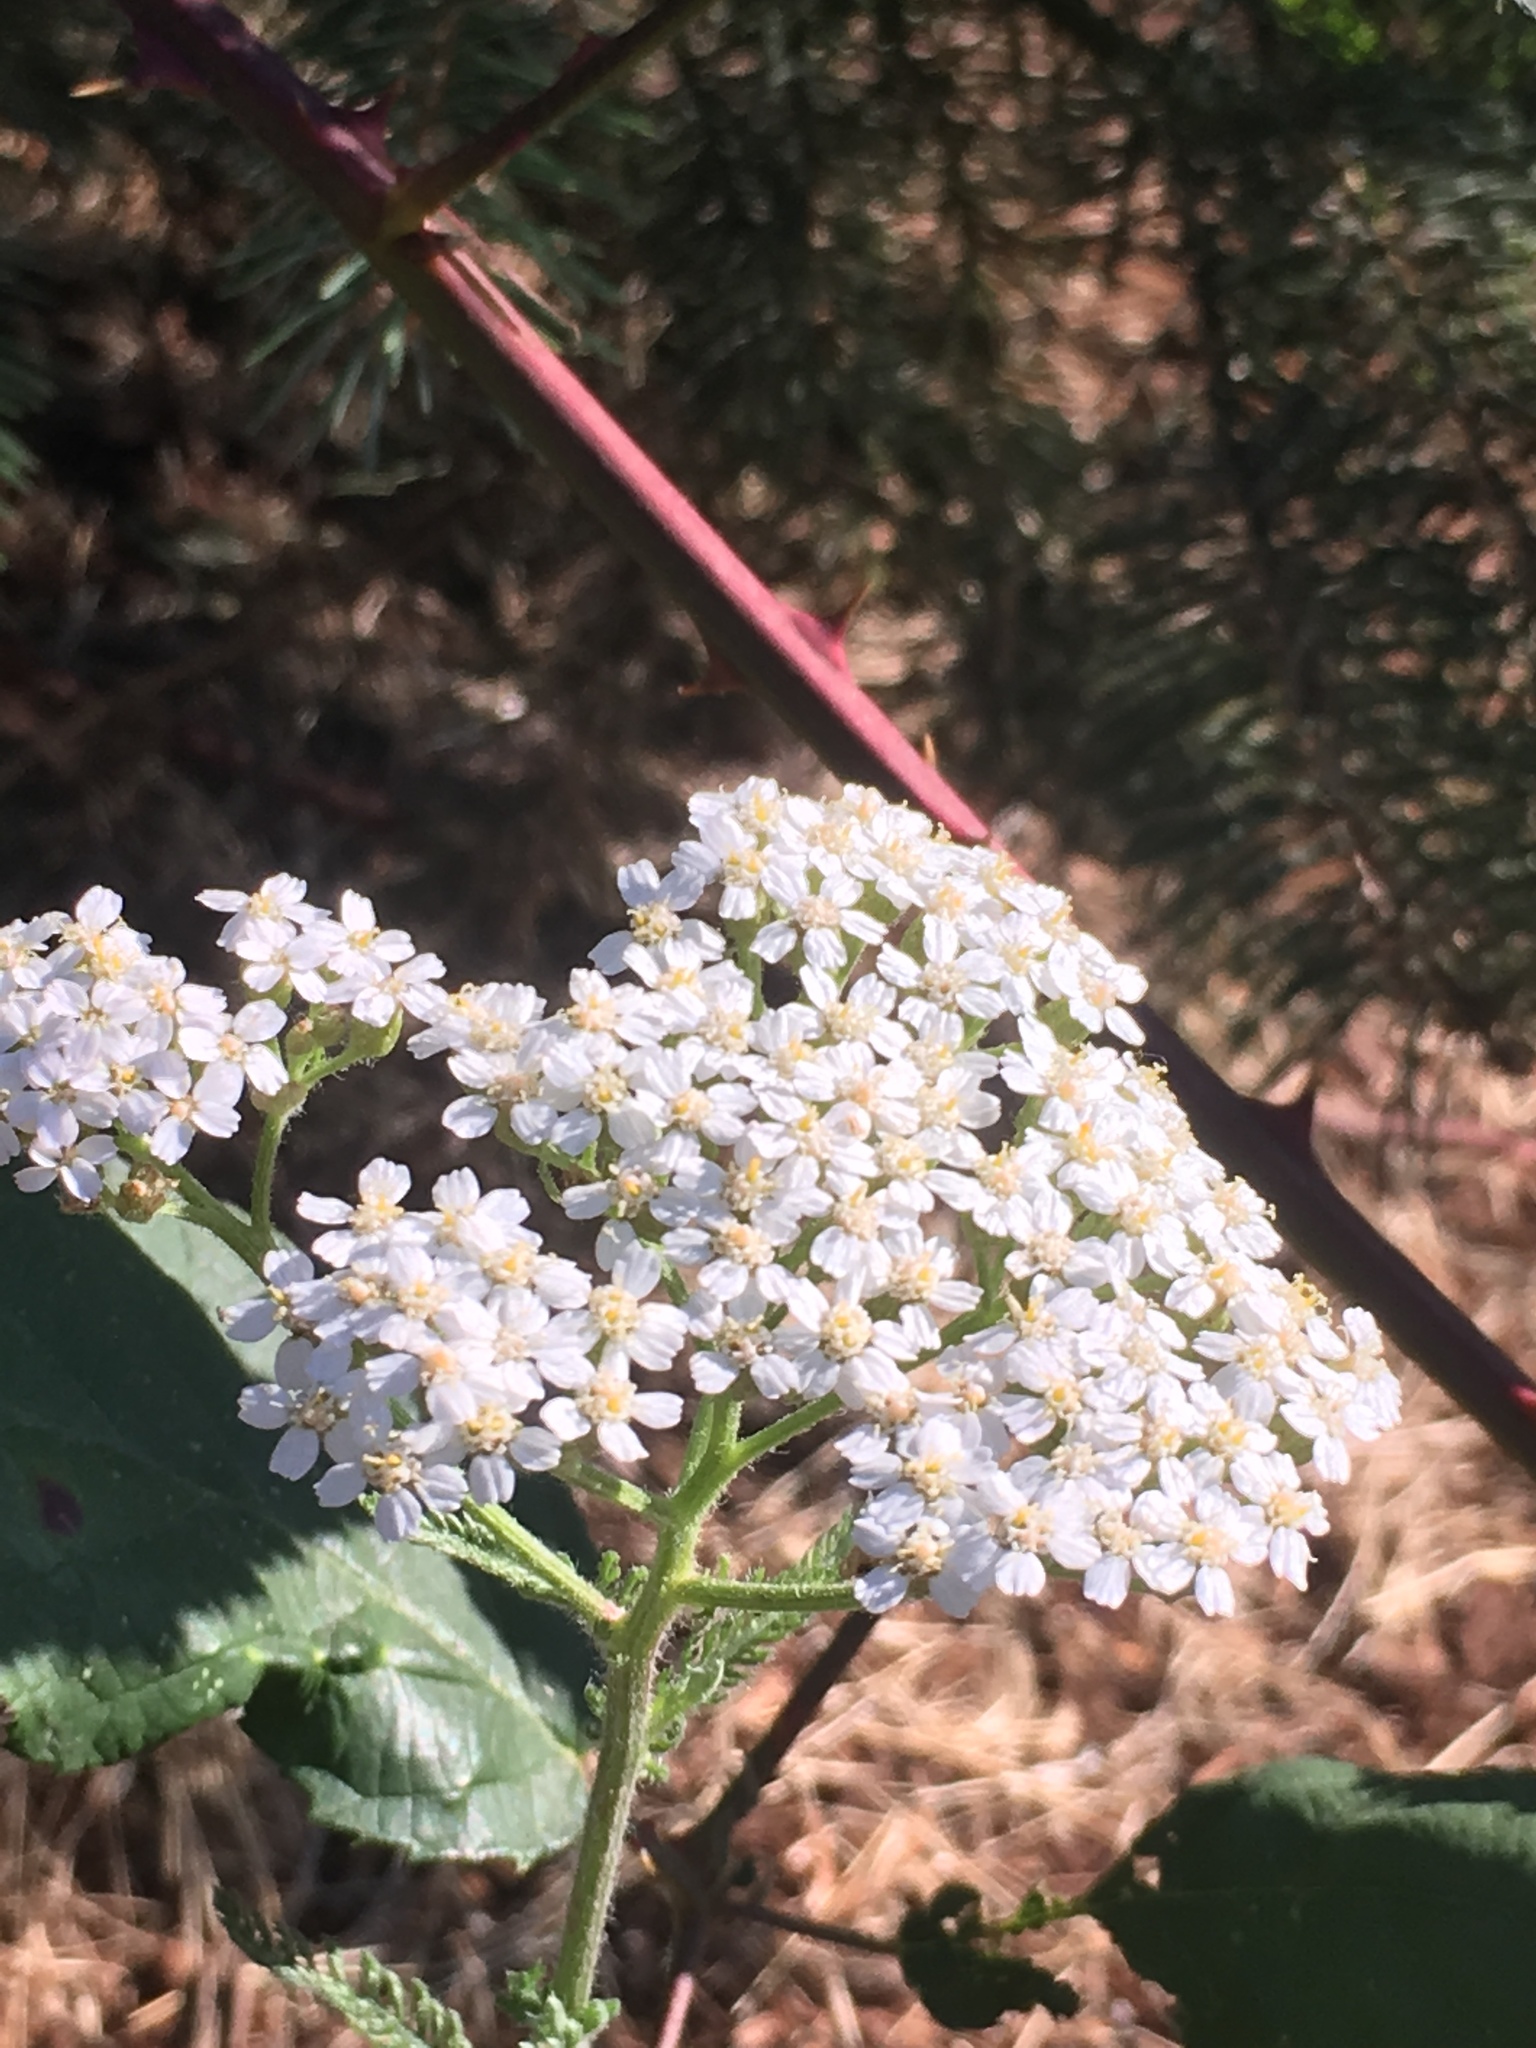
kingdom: Plantae
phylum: Tracheophyta
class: Magnoliopsida
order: Asterales
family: Asteraceae
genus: Achillea
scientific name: Achillea millefolium
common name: Yarrow
